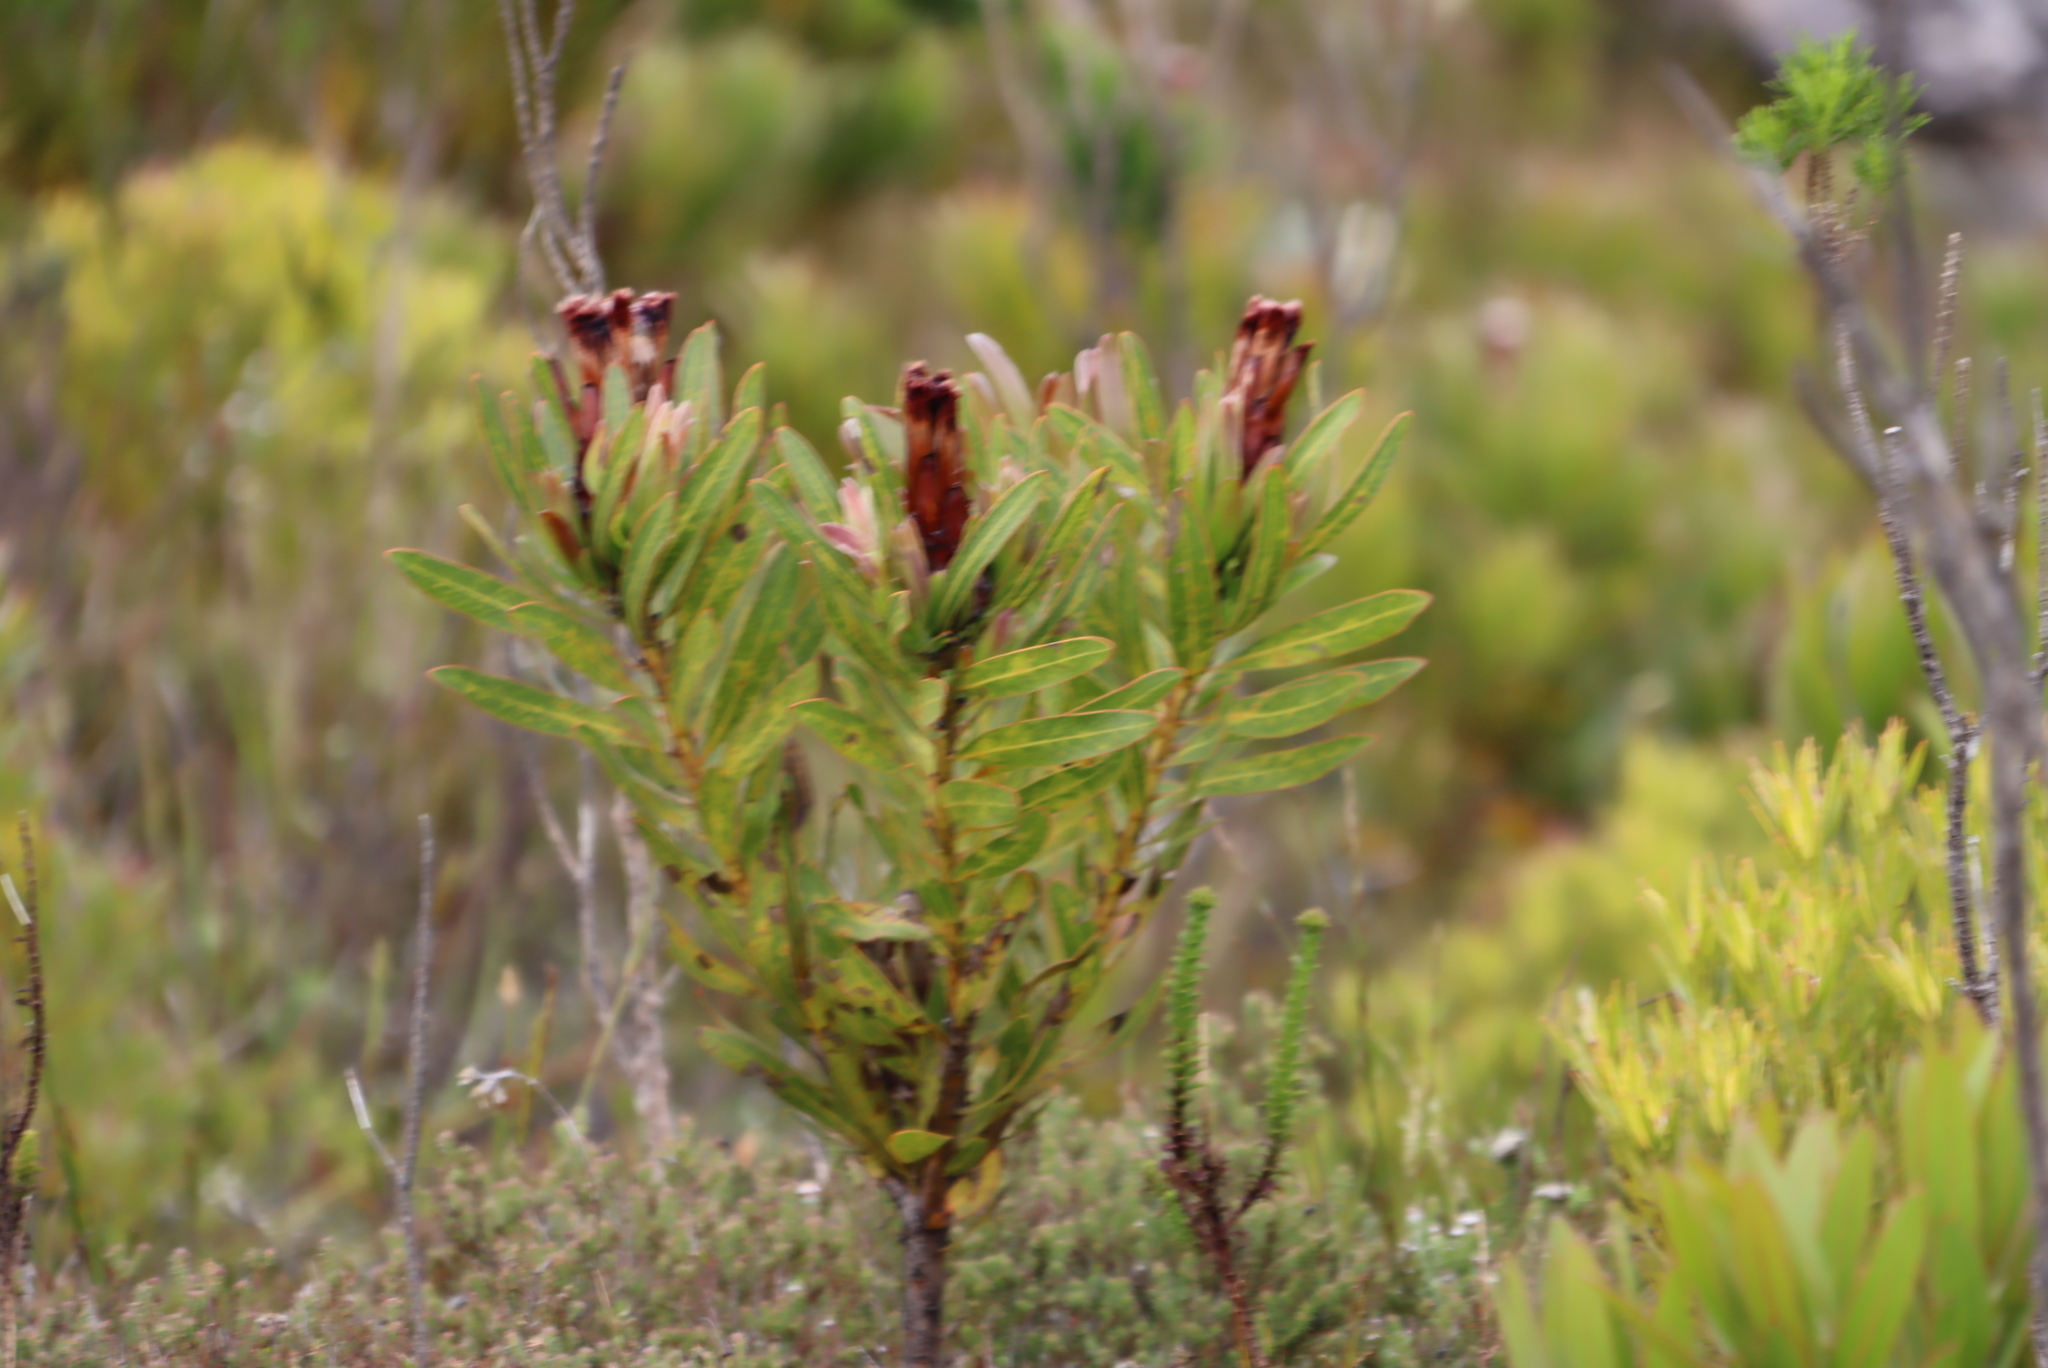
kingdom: Plantae
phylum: Tracheophyta
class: Magnoliopsida
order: Proteales
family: Proteaceae
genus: Protea
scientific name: Protea lepidocarpodendron
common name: Black-bearded protea
